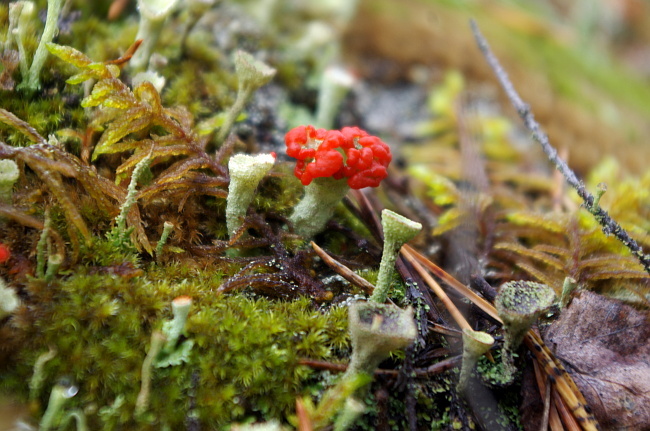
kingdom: Fungi
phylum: Ascomycota
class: Lecanoromycetes
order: Lecanorales
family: Cladoniaceae
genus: Cladonia
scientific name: Cladonia
